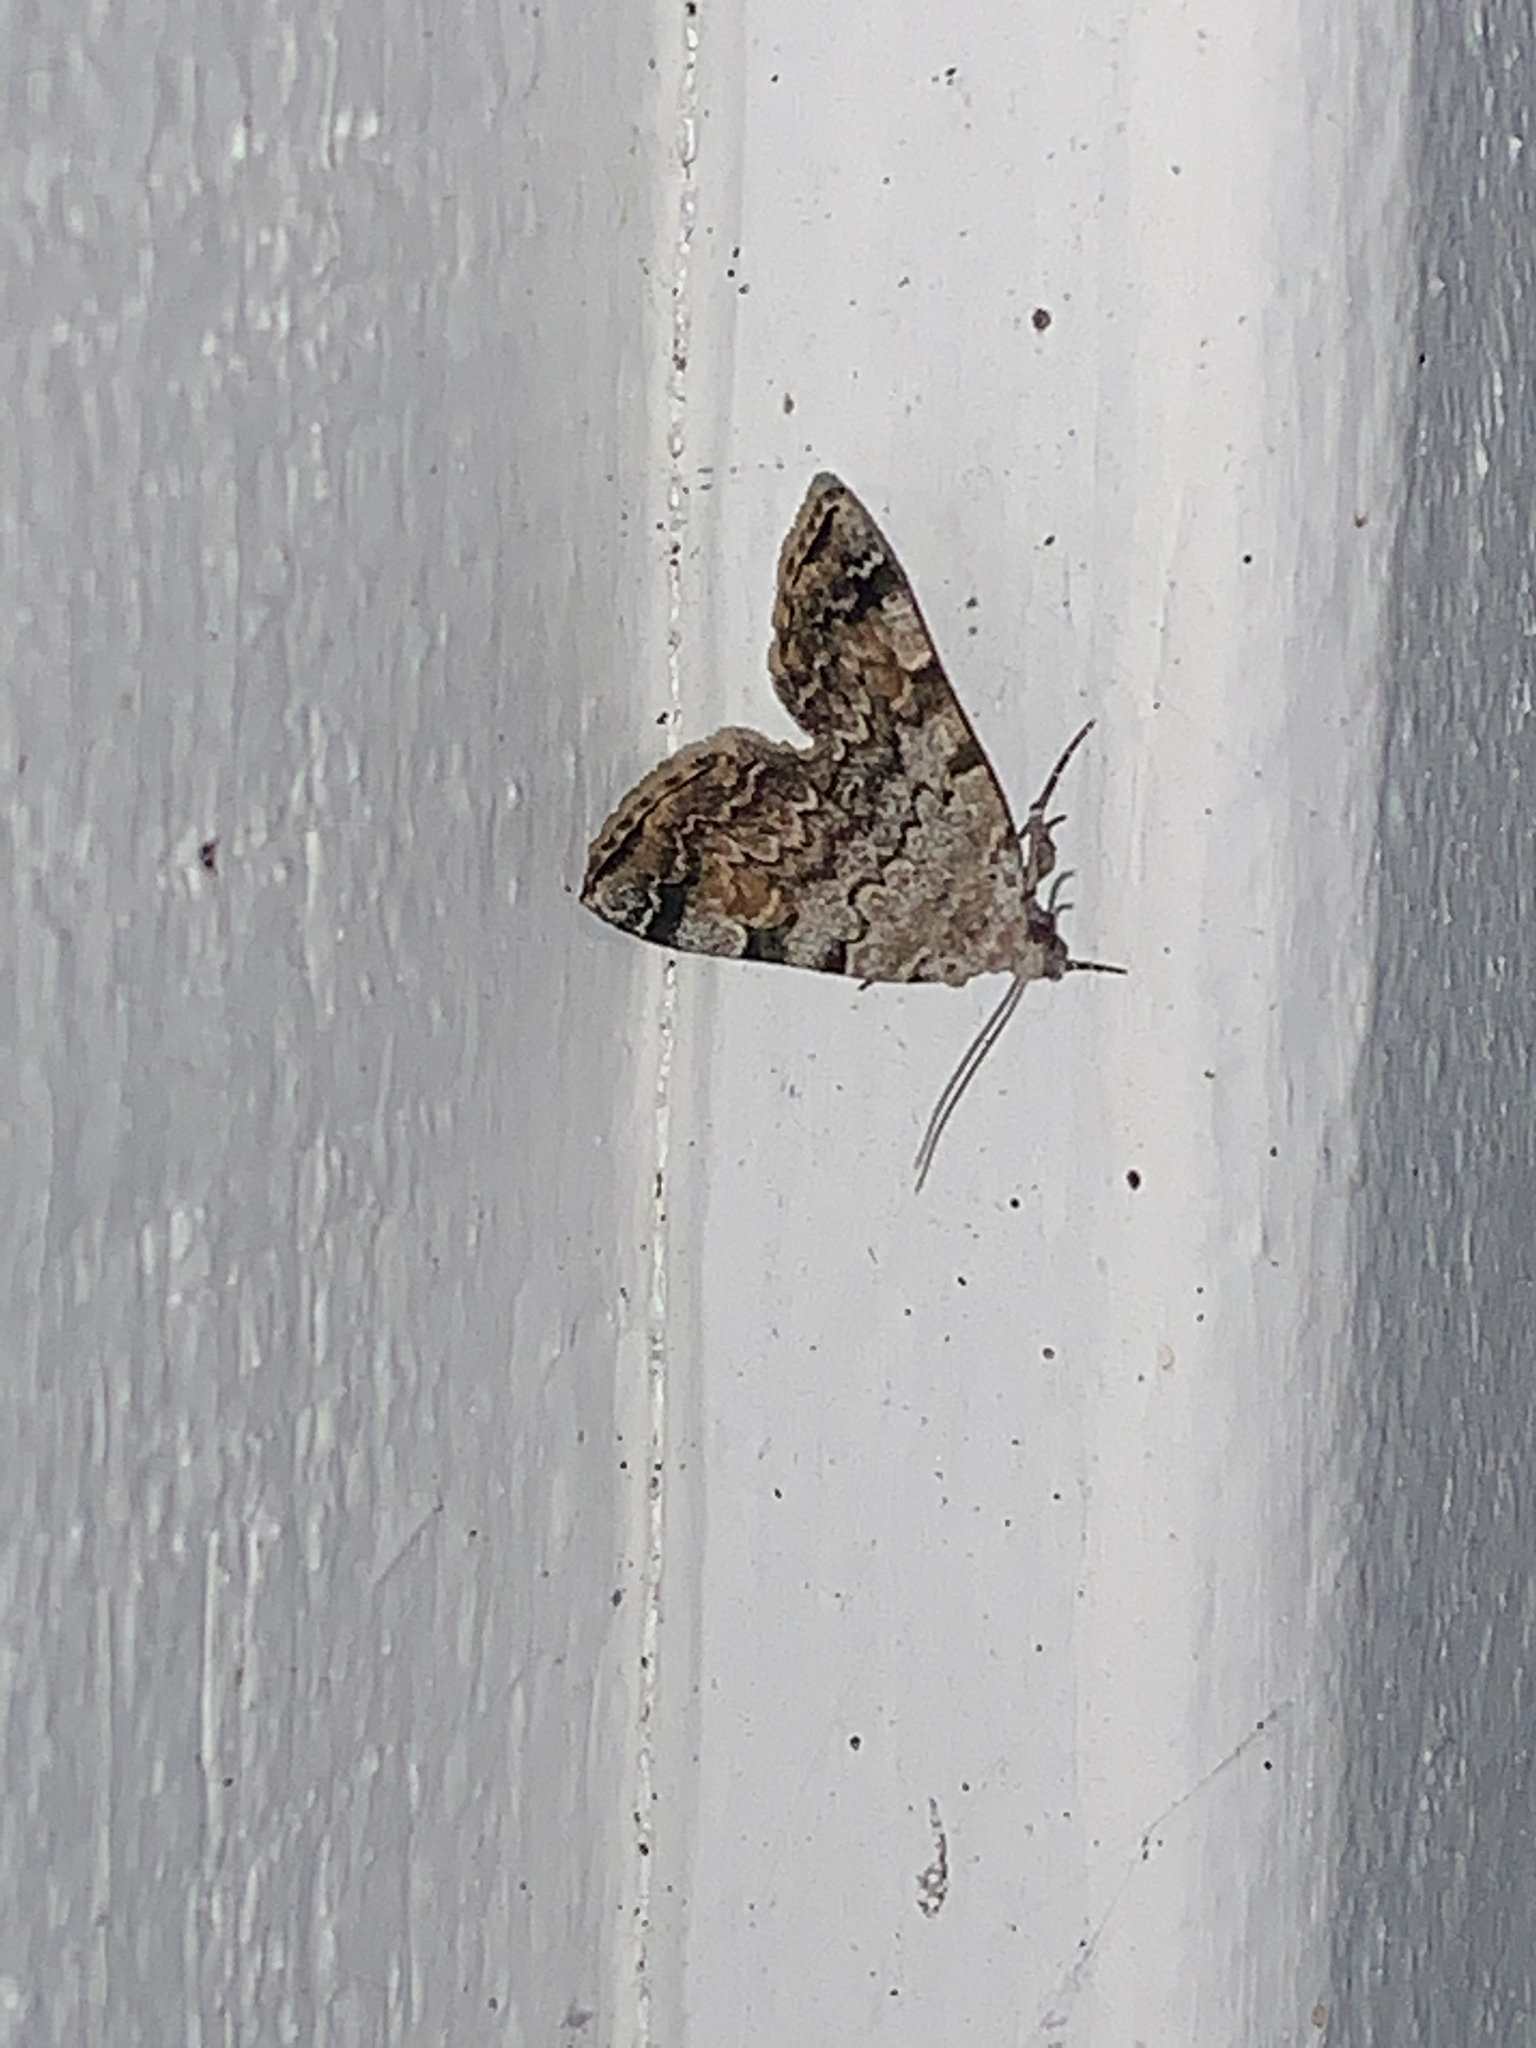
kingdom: Animalia
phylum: Arthropoda
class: Insecta
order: Lepidoptera
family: Erebidae
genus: Idia
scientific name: Idia americalis
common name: American idia moth
